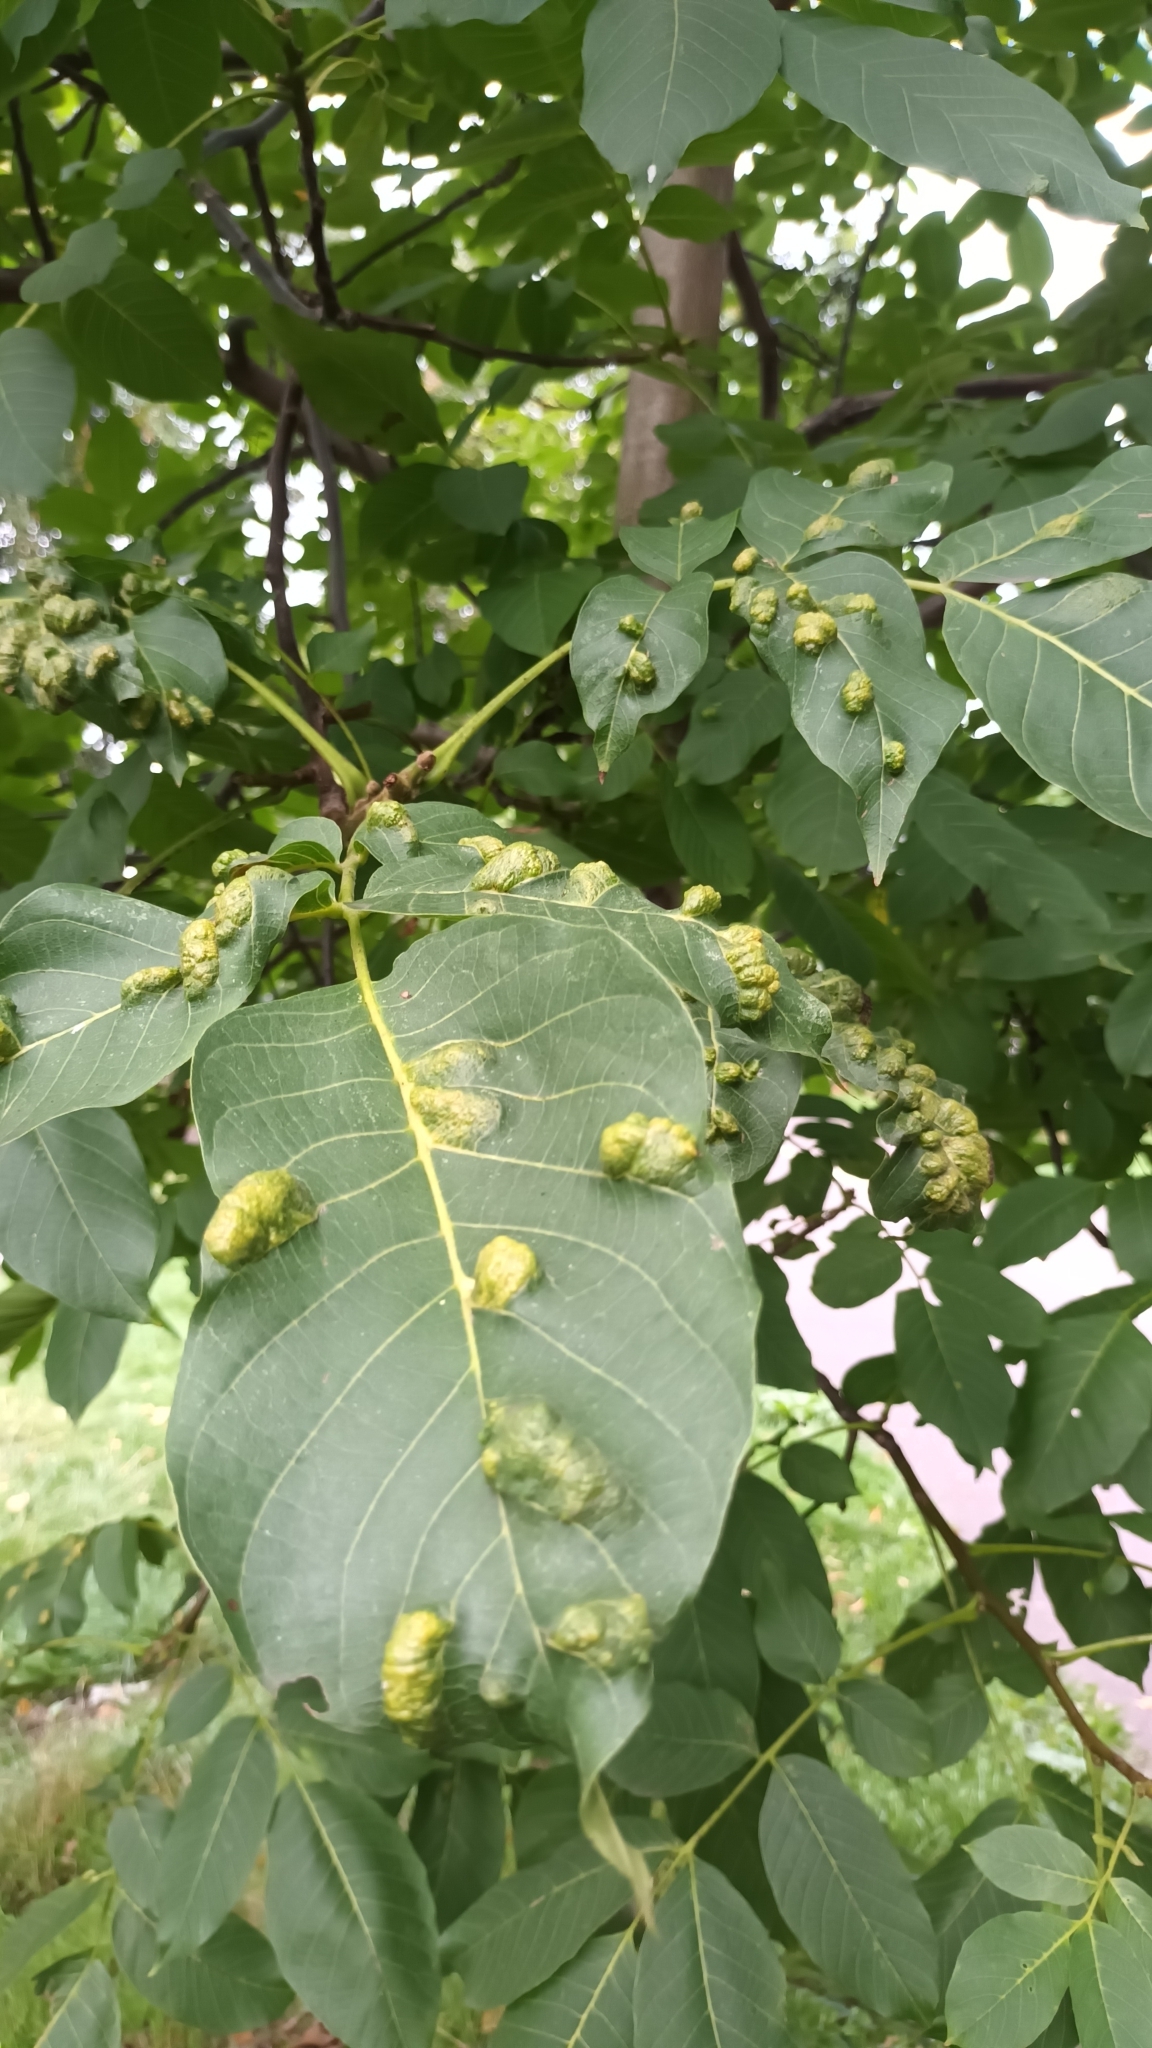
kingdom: Animalia
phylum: Arthropoda
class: Arachnida
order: Trombidiformes
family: Eriophyidae
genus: Aceria
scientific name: Aceria erinea
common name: Persian walnut erineum mite
